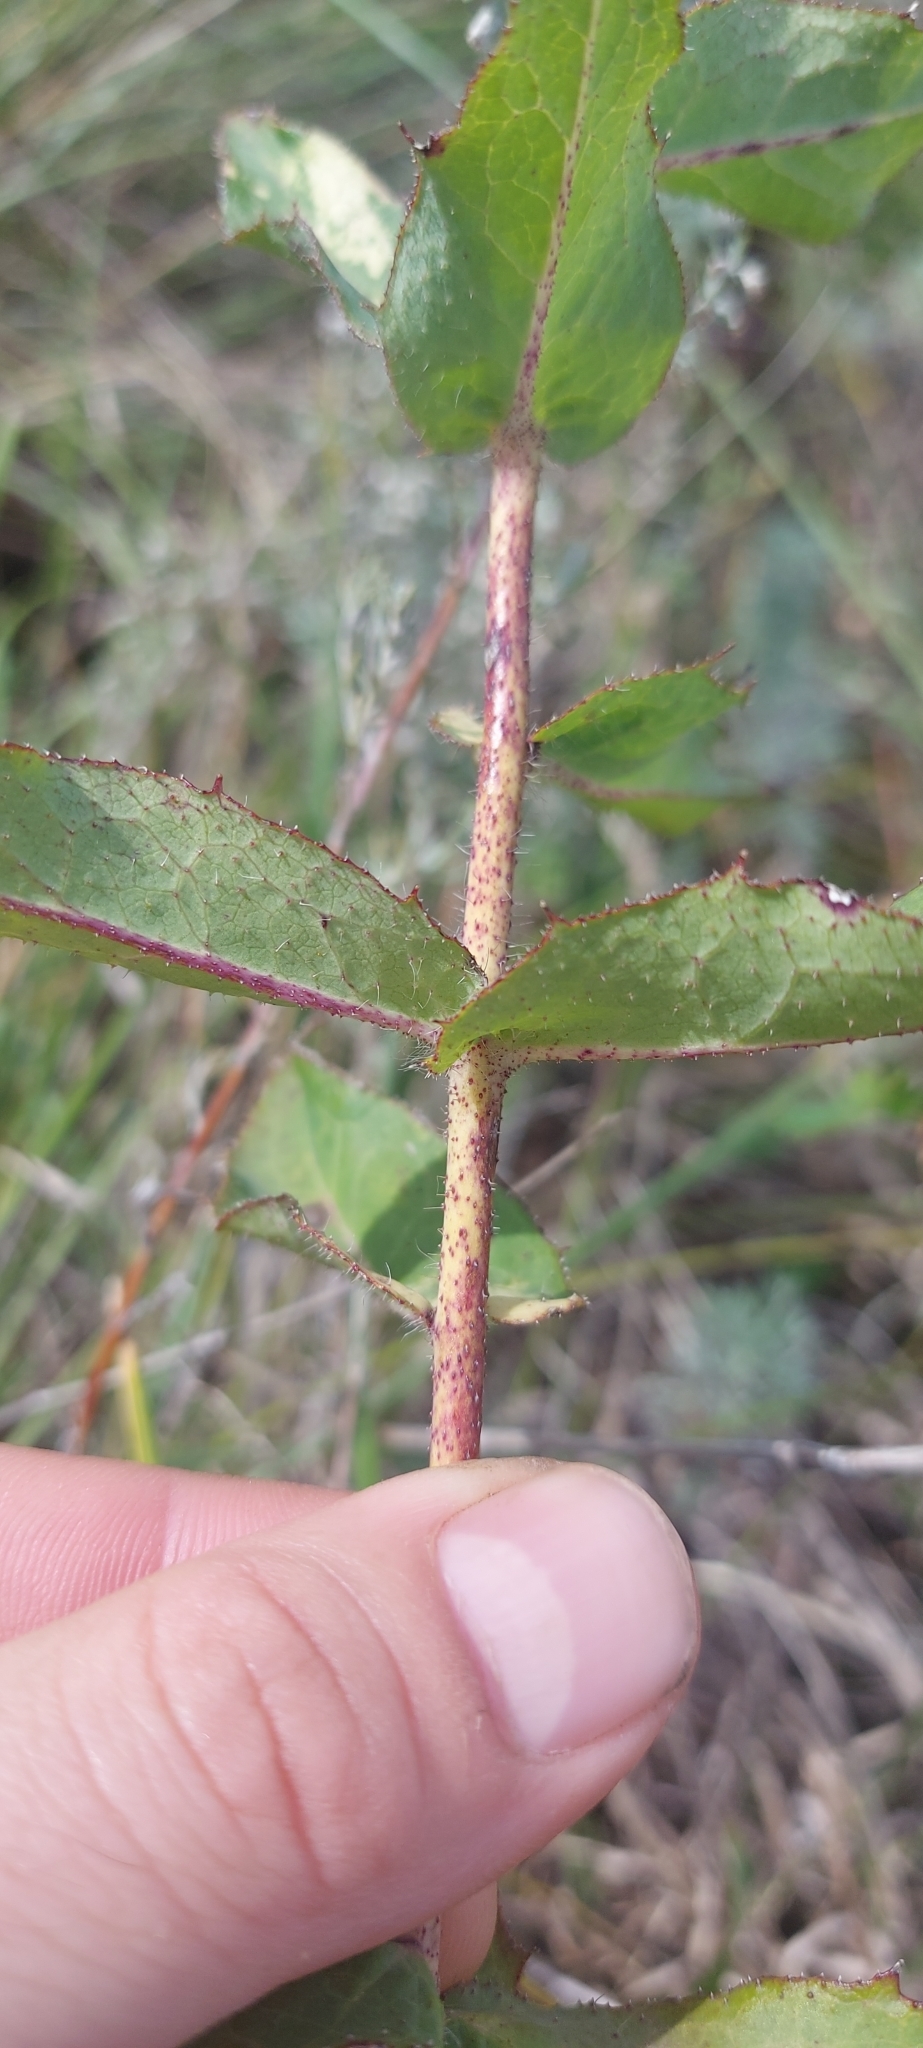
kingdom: Plantae
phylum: Tracheophyta
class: Magnoliopsida
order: Asterales
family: Asteraceae
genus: Hieracium
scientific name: Hieracium virosum
